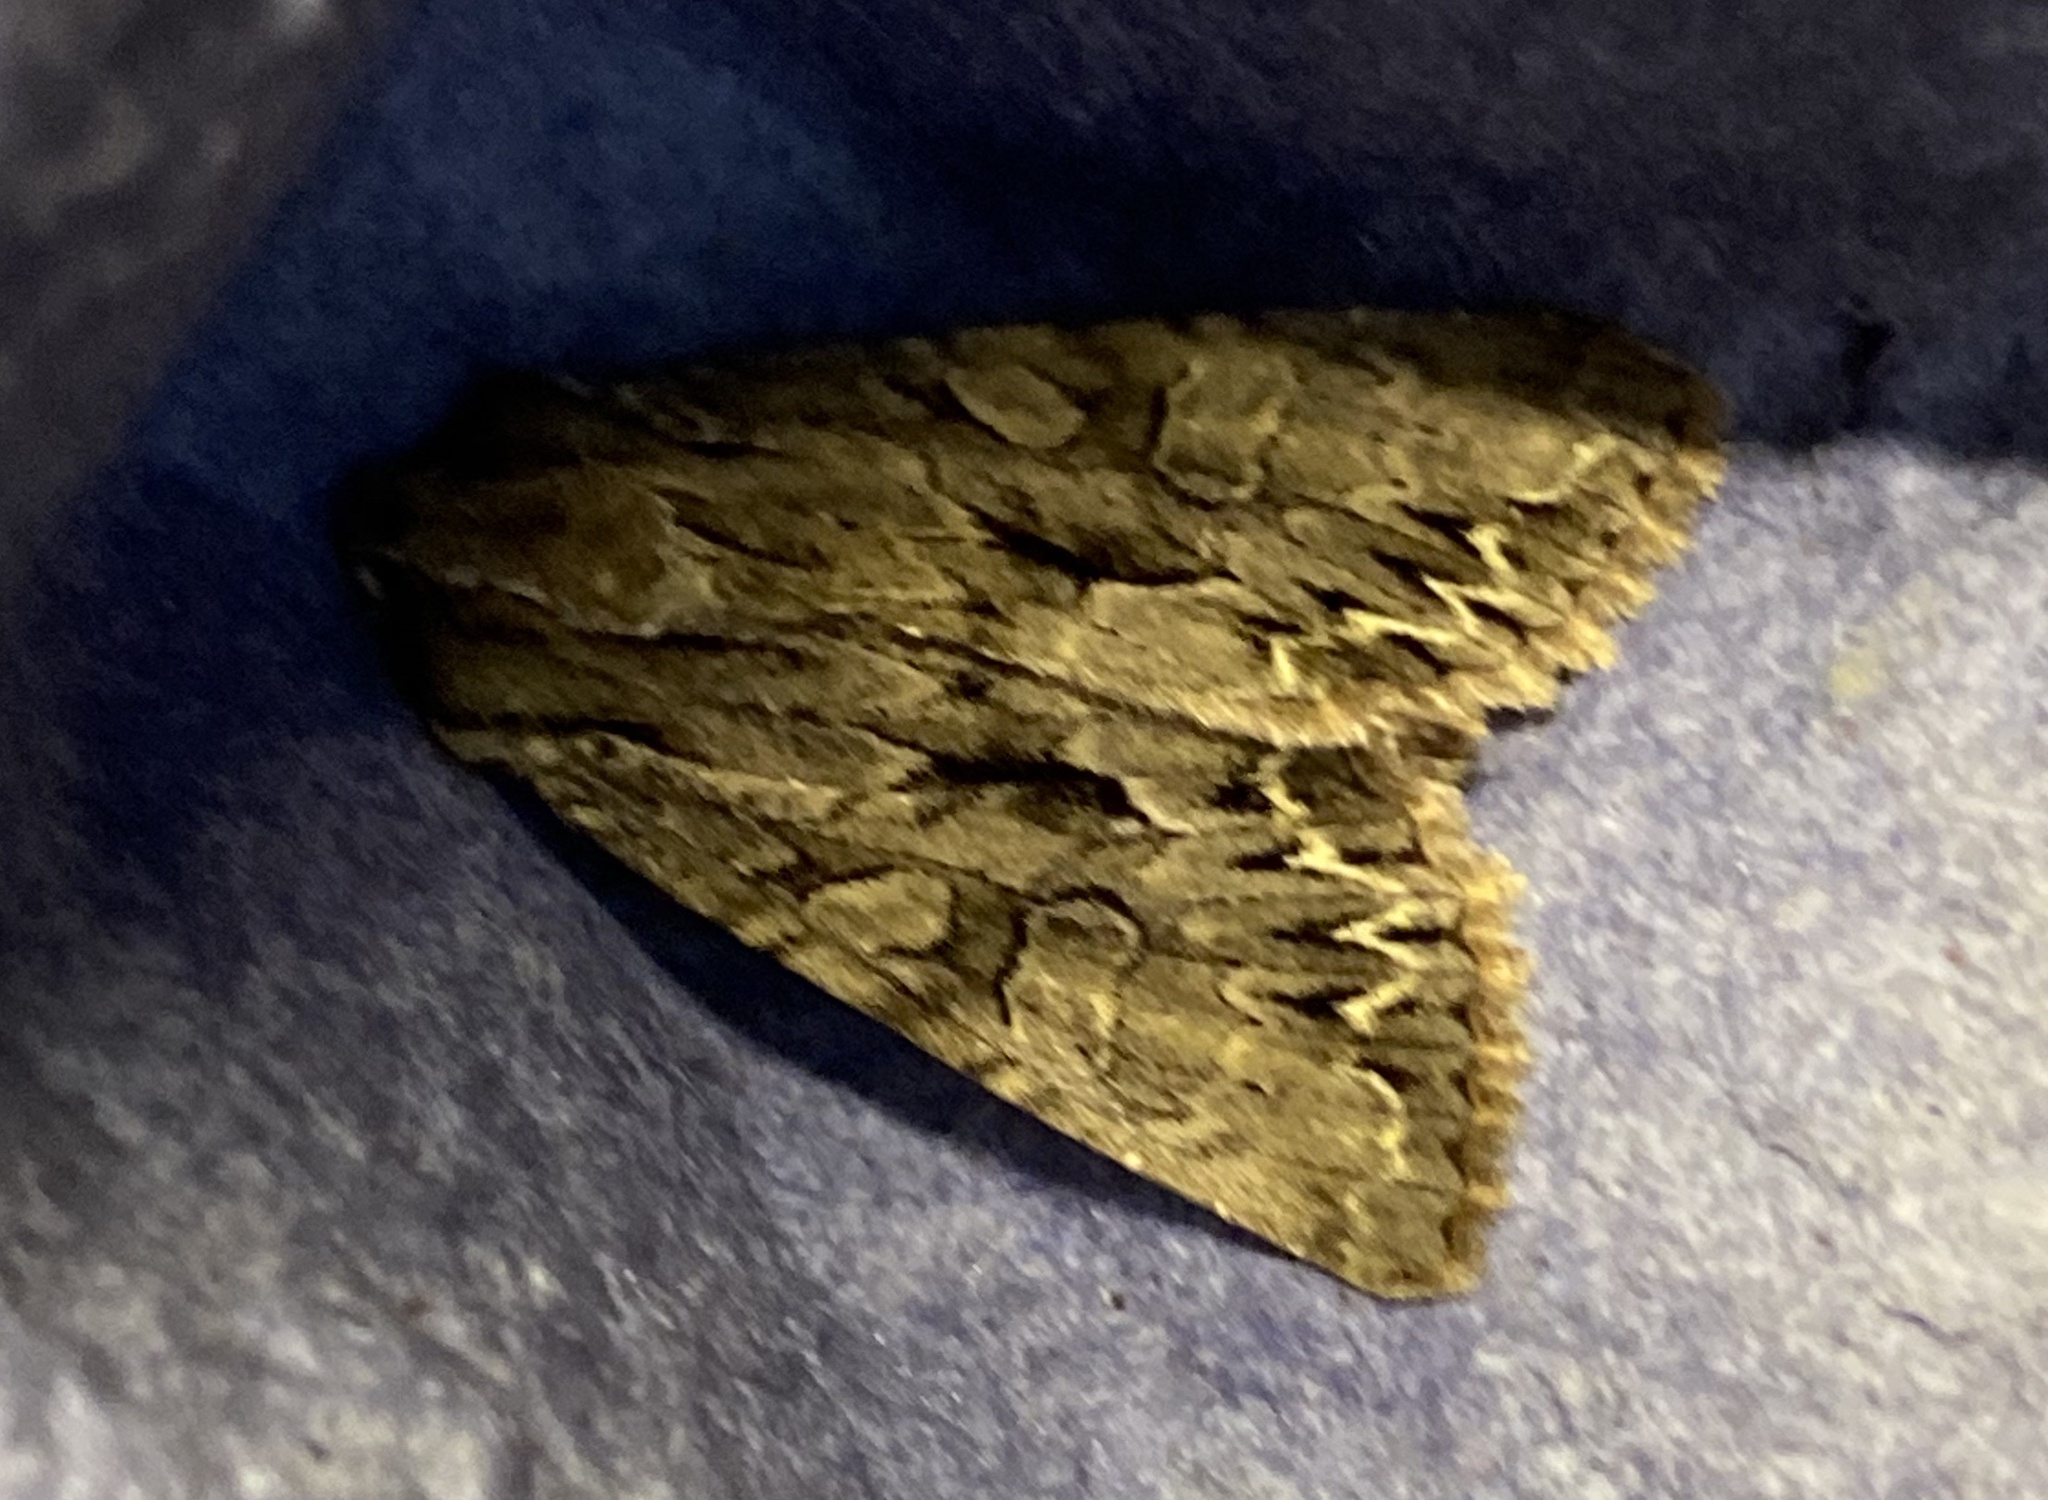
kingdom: Animalia
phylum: Arthropoda
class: Insecta
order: Lepidoptera
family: Noctuidae
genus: Apamea
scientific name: Apamea monoglypha
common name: Dark arches
